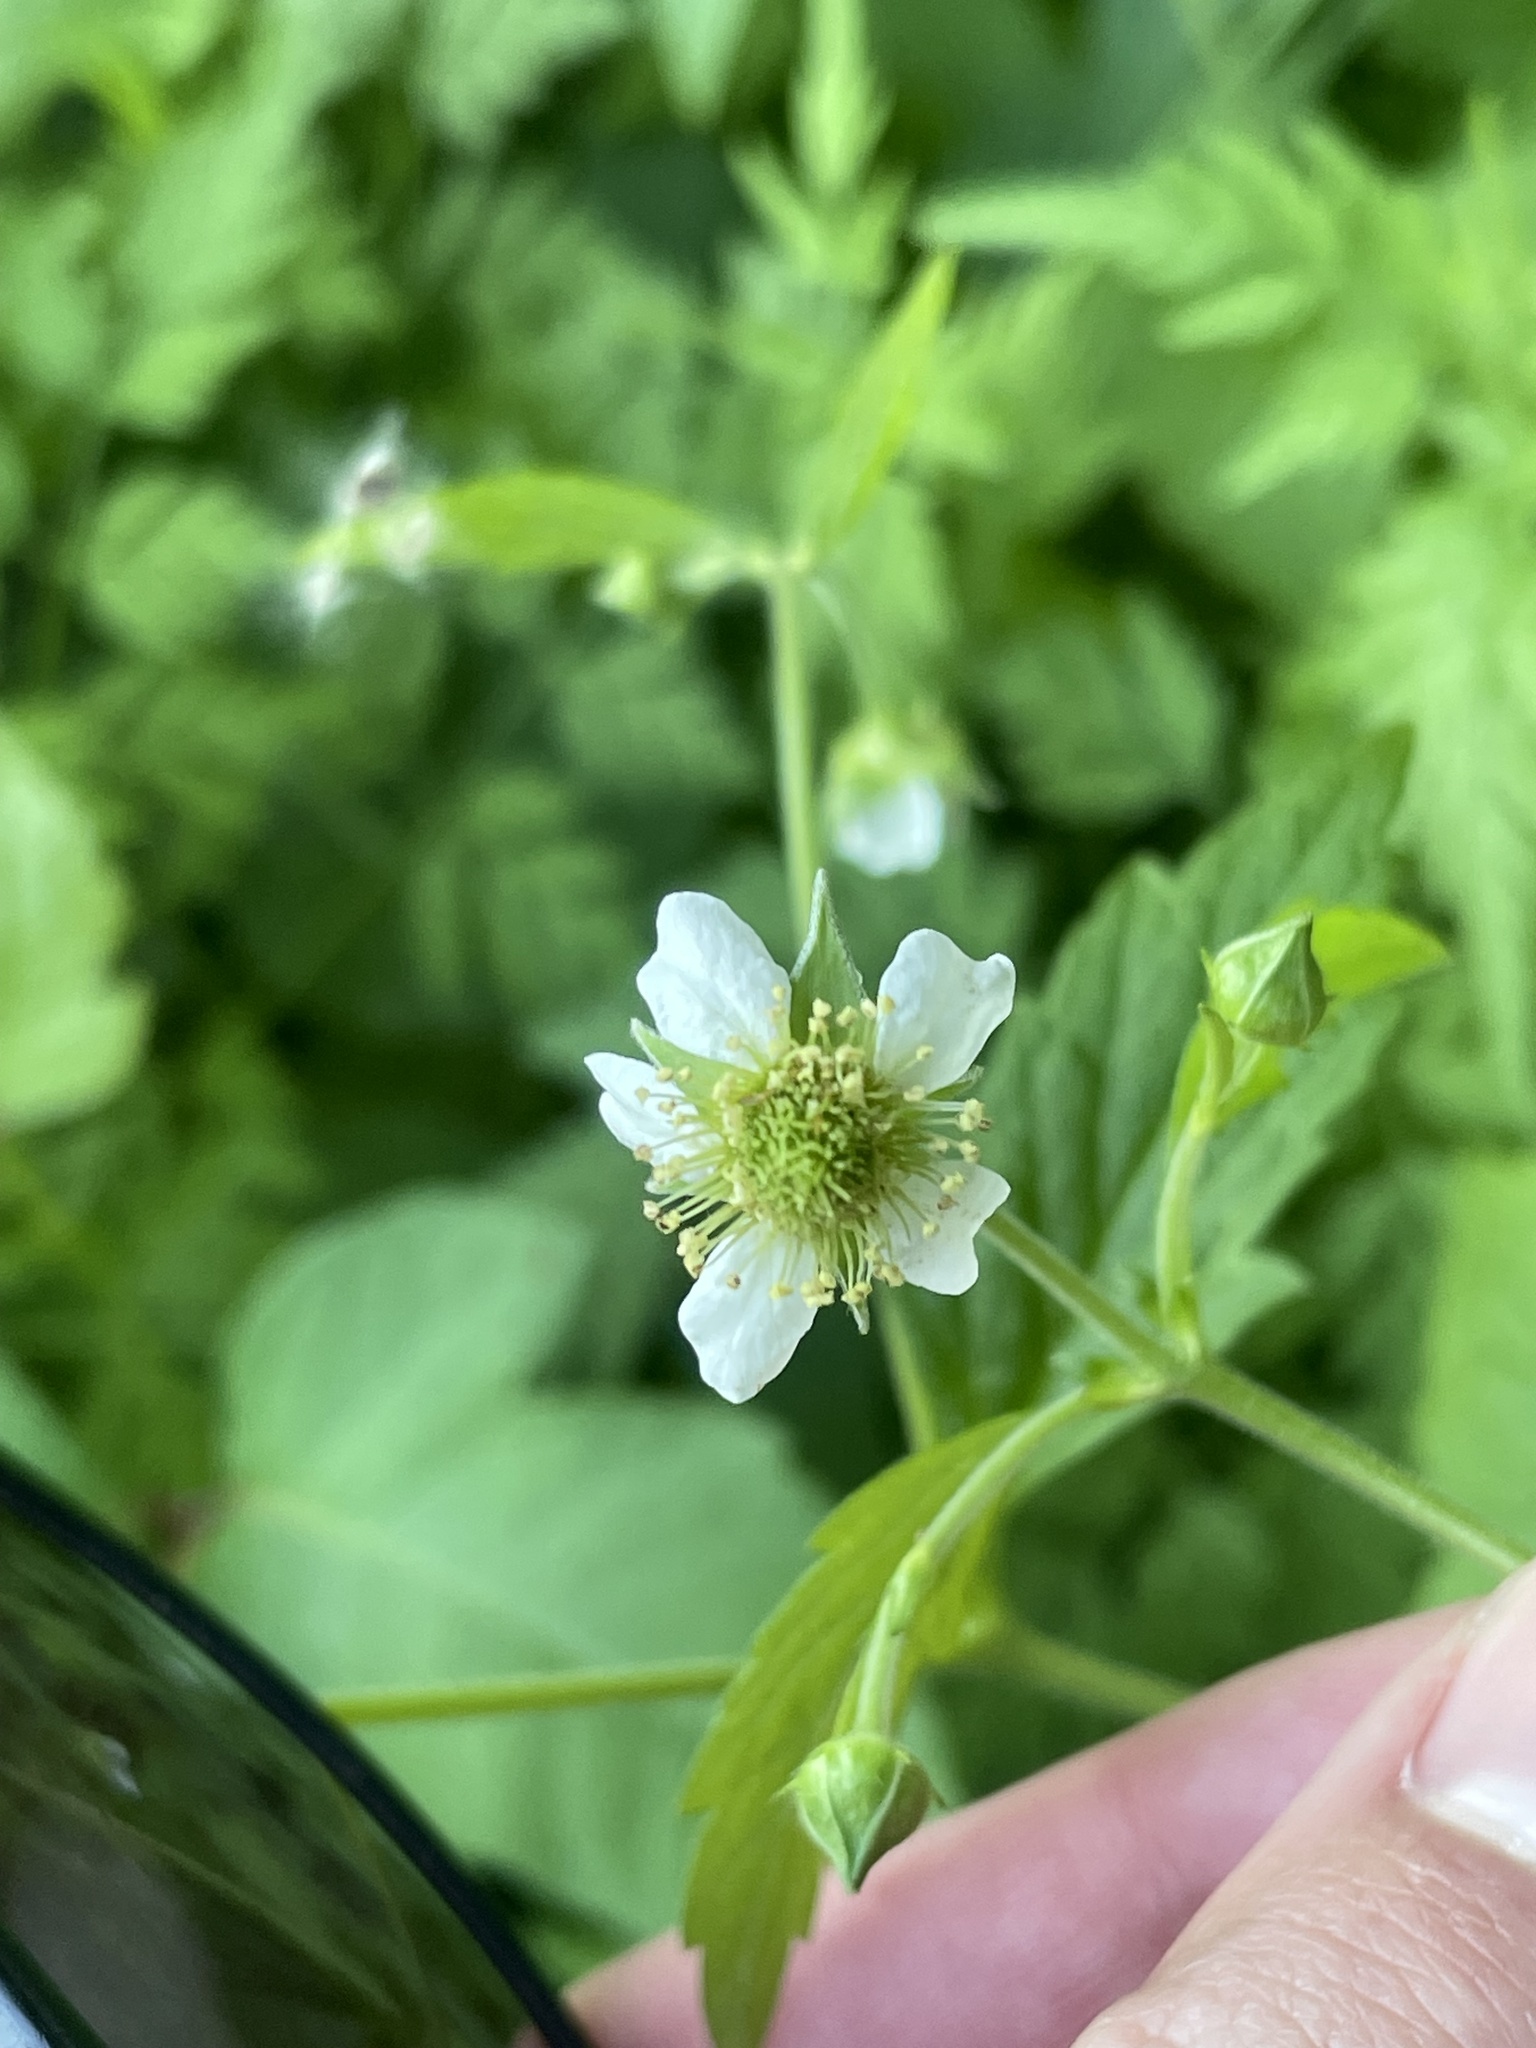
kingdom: Plantae
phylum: Tracheophyta
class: Magnoliopsida
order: Rosales
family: Rosaceae
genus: Geum
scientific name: Geum canadense
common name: White avens
